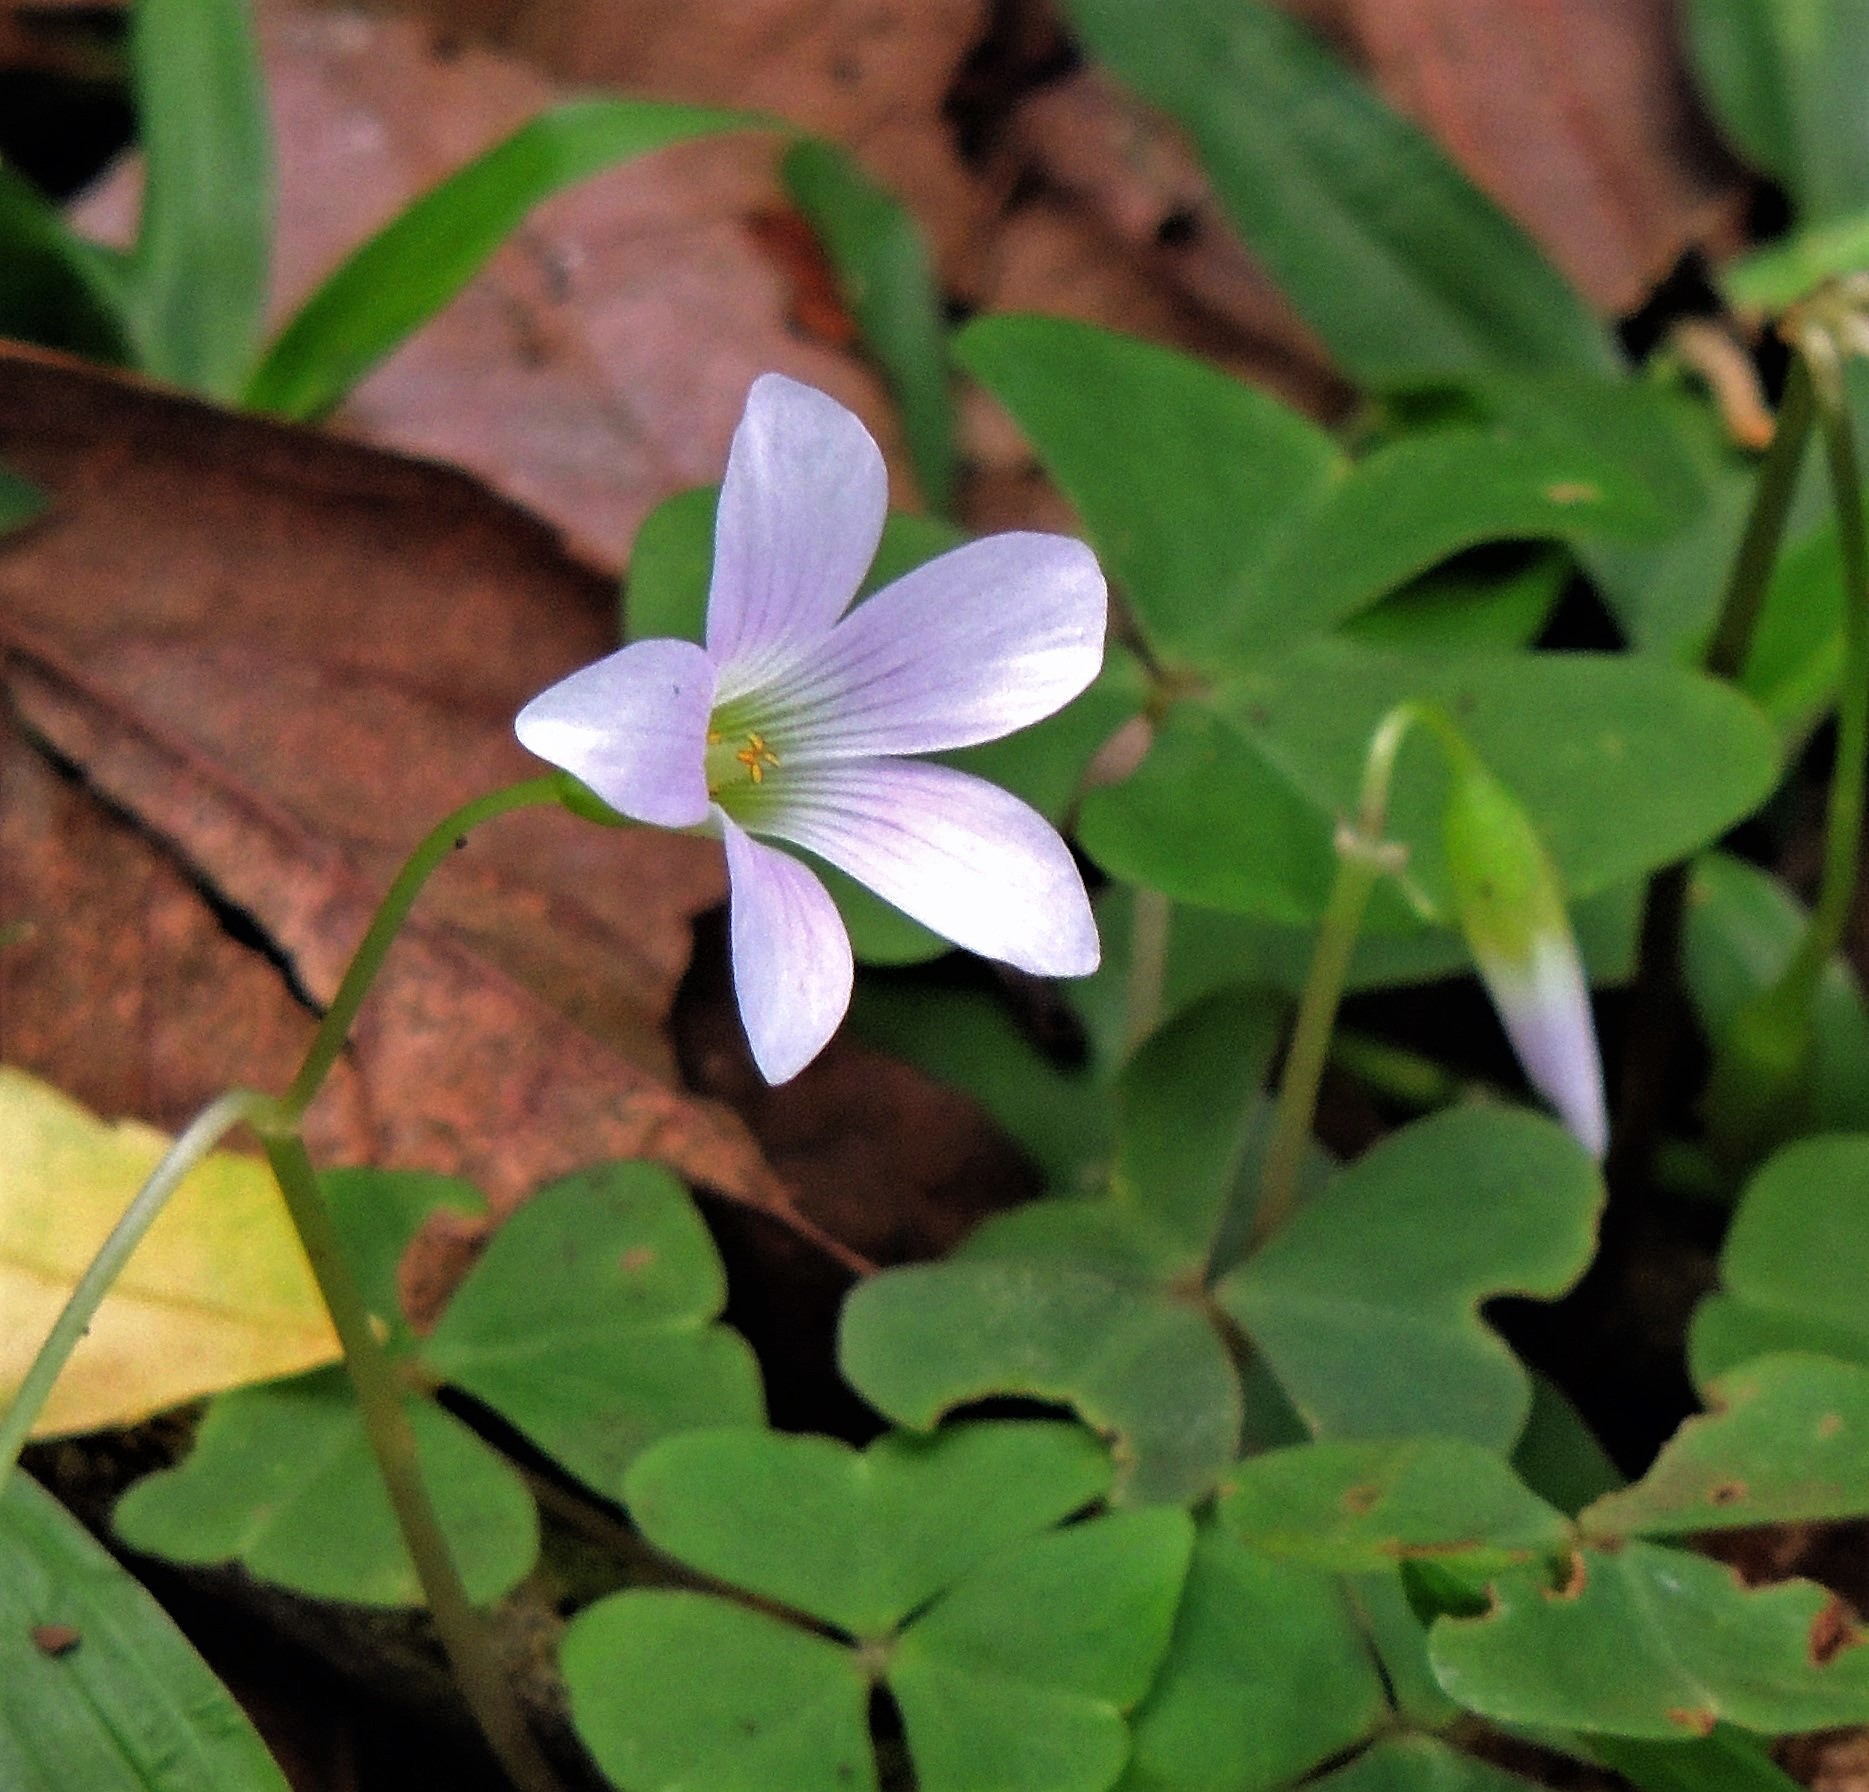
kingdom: Plantae
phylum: Tracheophyta
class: Magnoliopsida
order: Oxalidales
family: Oxalidaceae
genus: Oxalis
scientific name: Oxalis triangularis
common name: Wood sorrel
